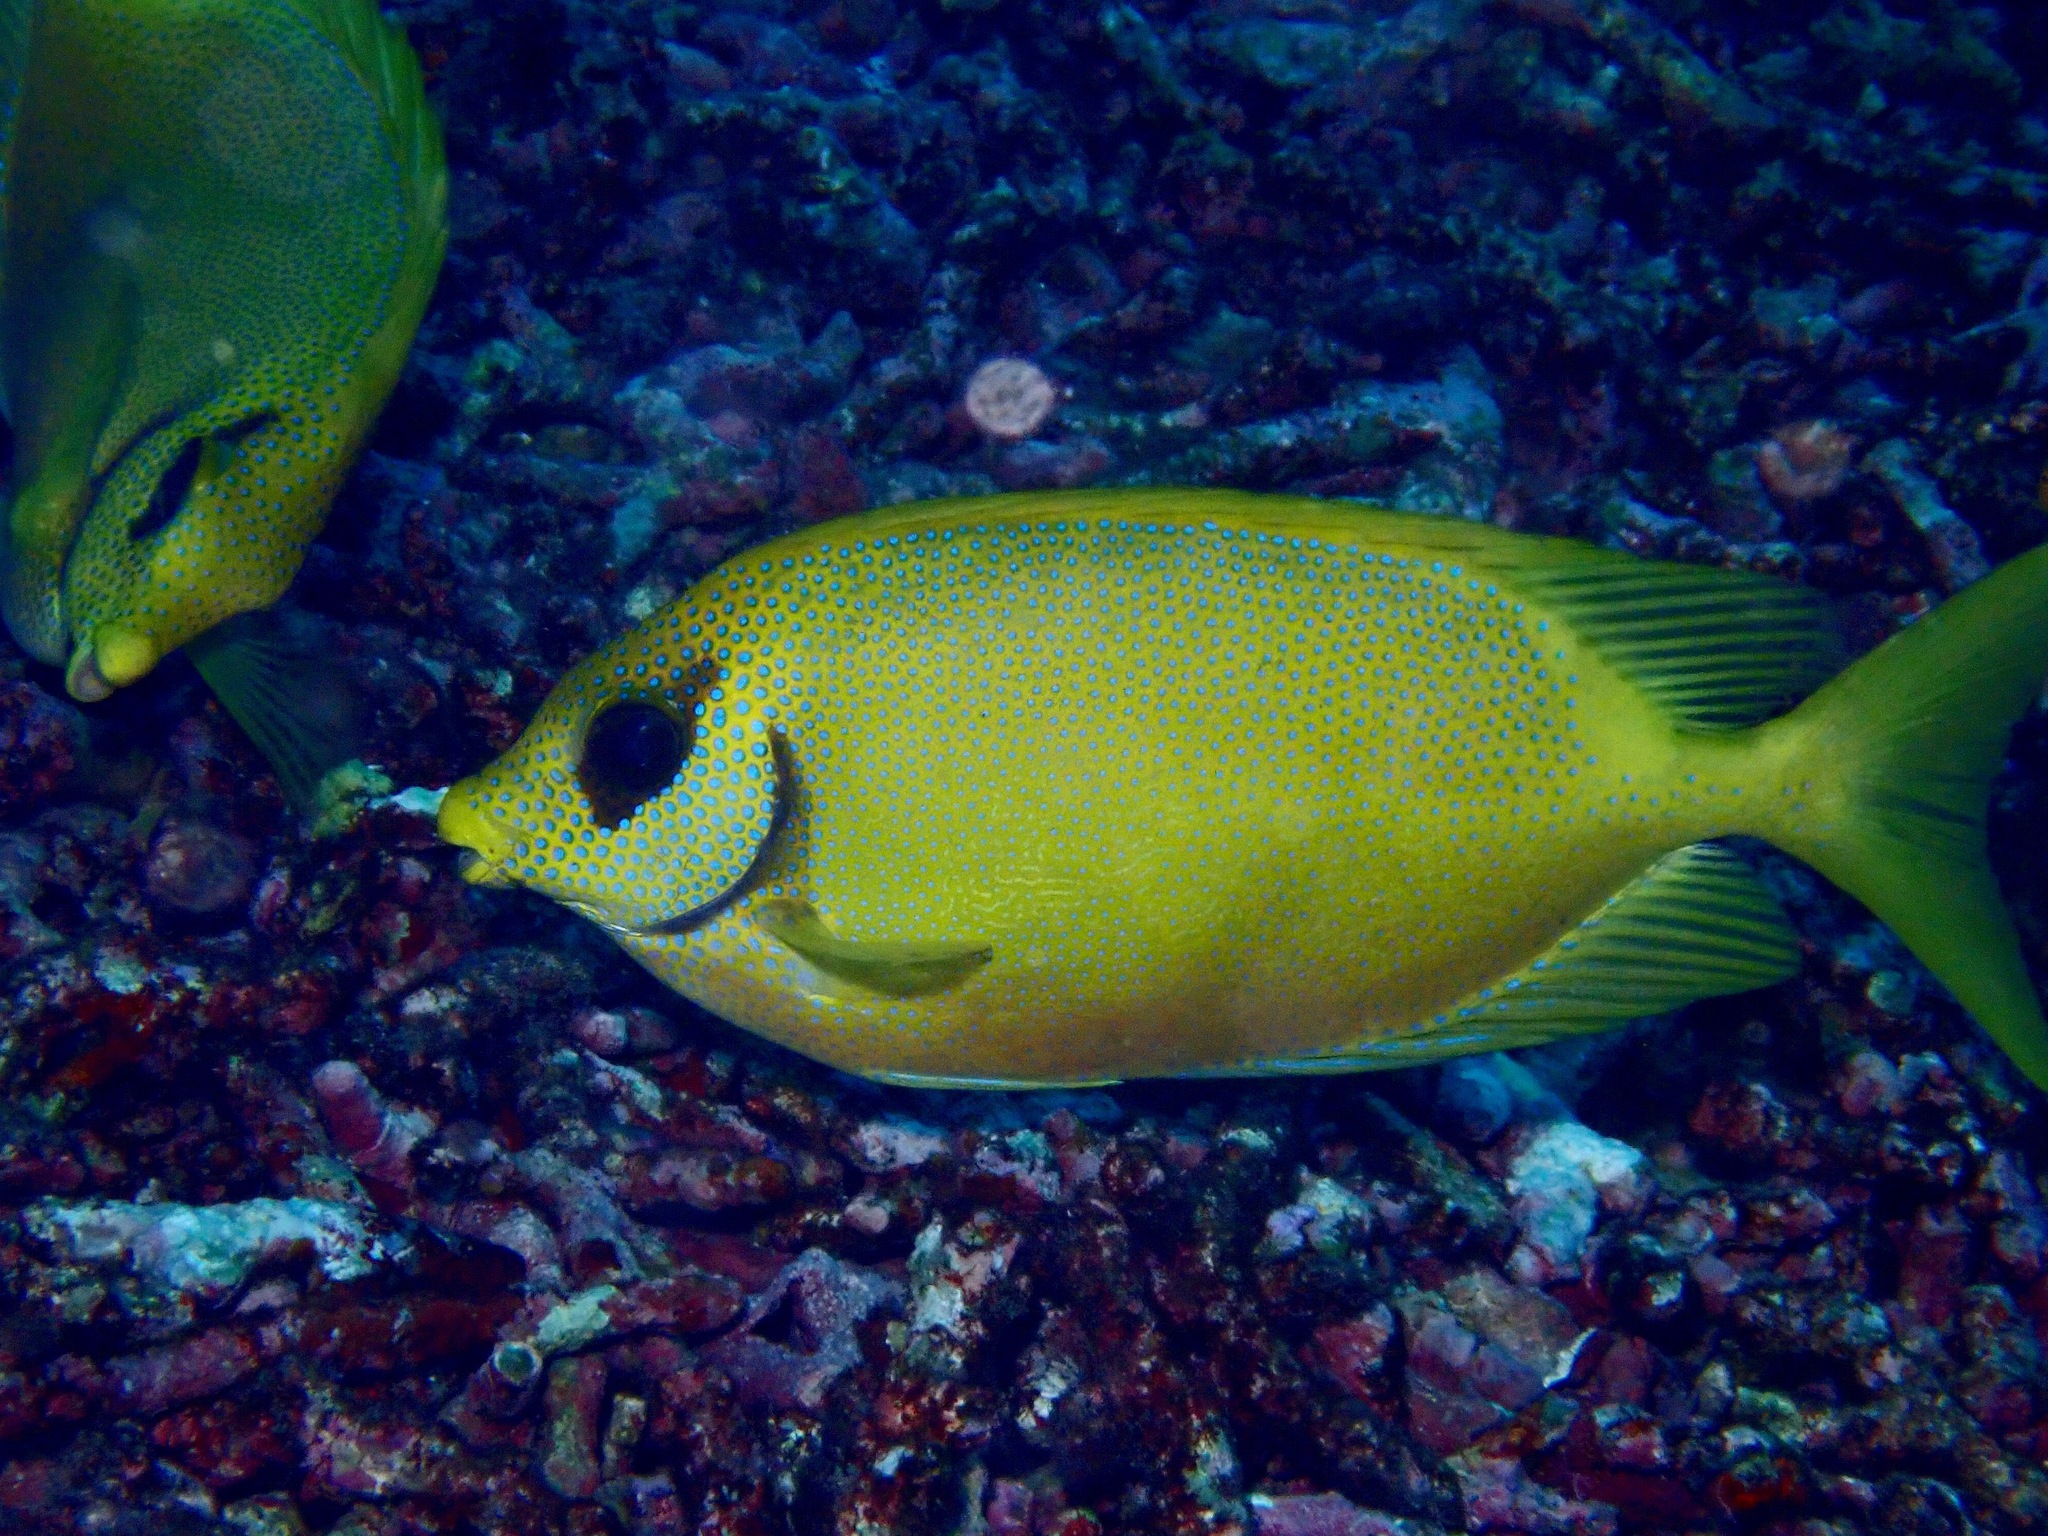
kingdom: Animalia
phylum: Chordata
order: Perciformes
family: Siganidae
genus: Siganus
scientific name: Siganus corallinus
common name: Coral rabbitfish
